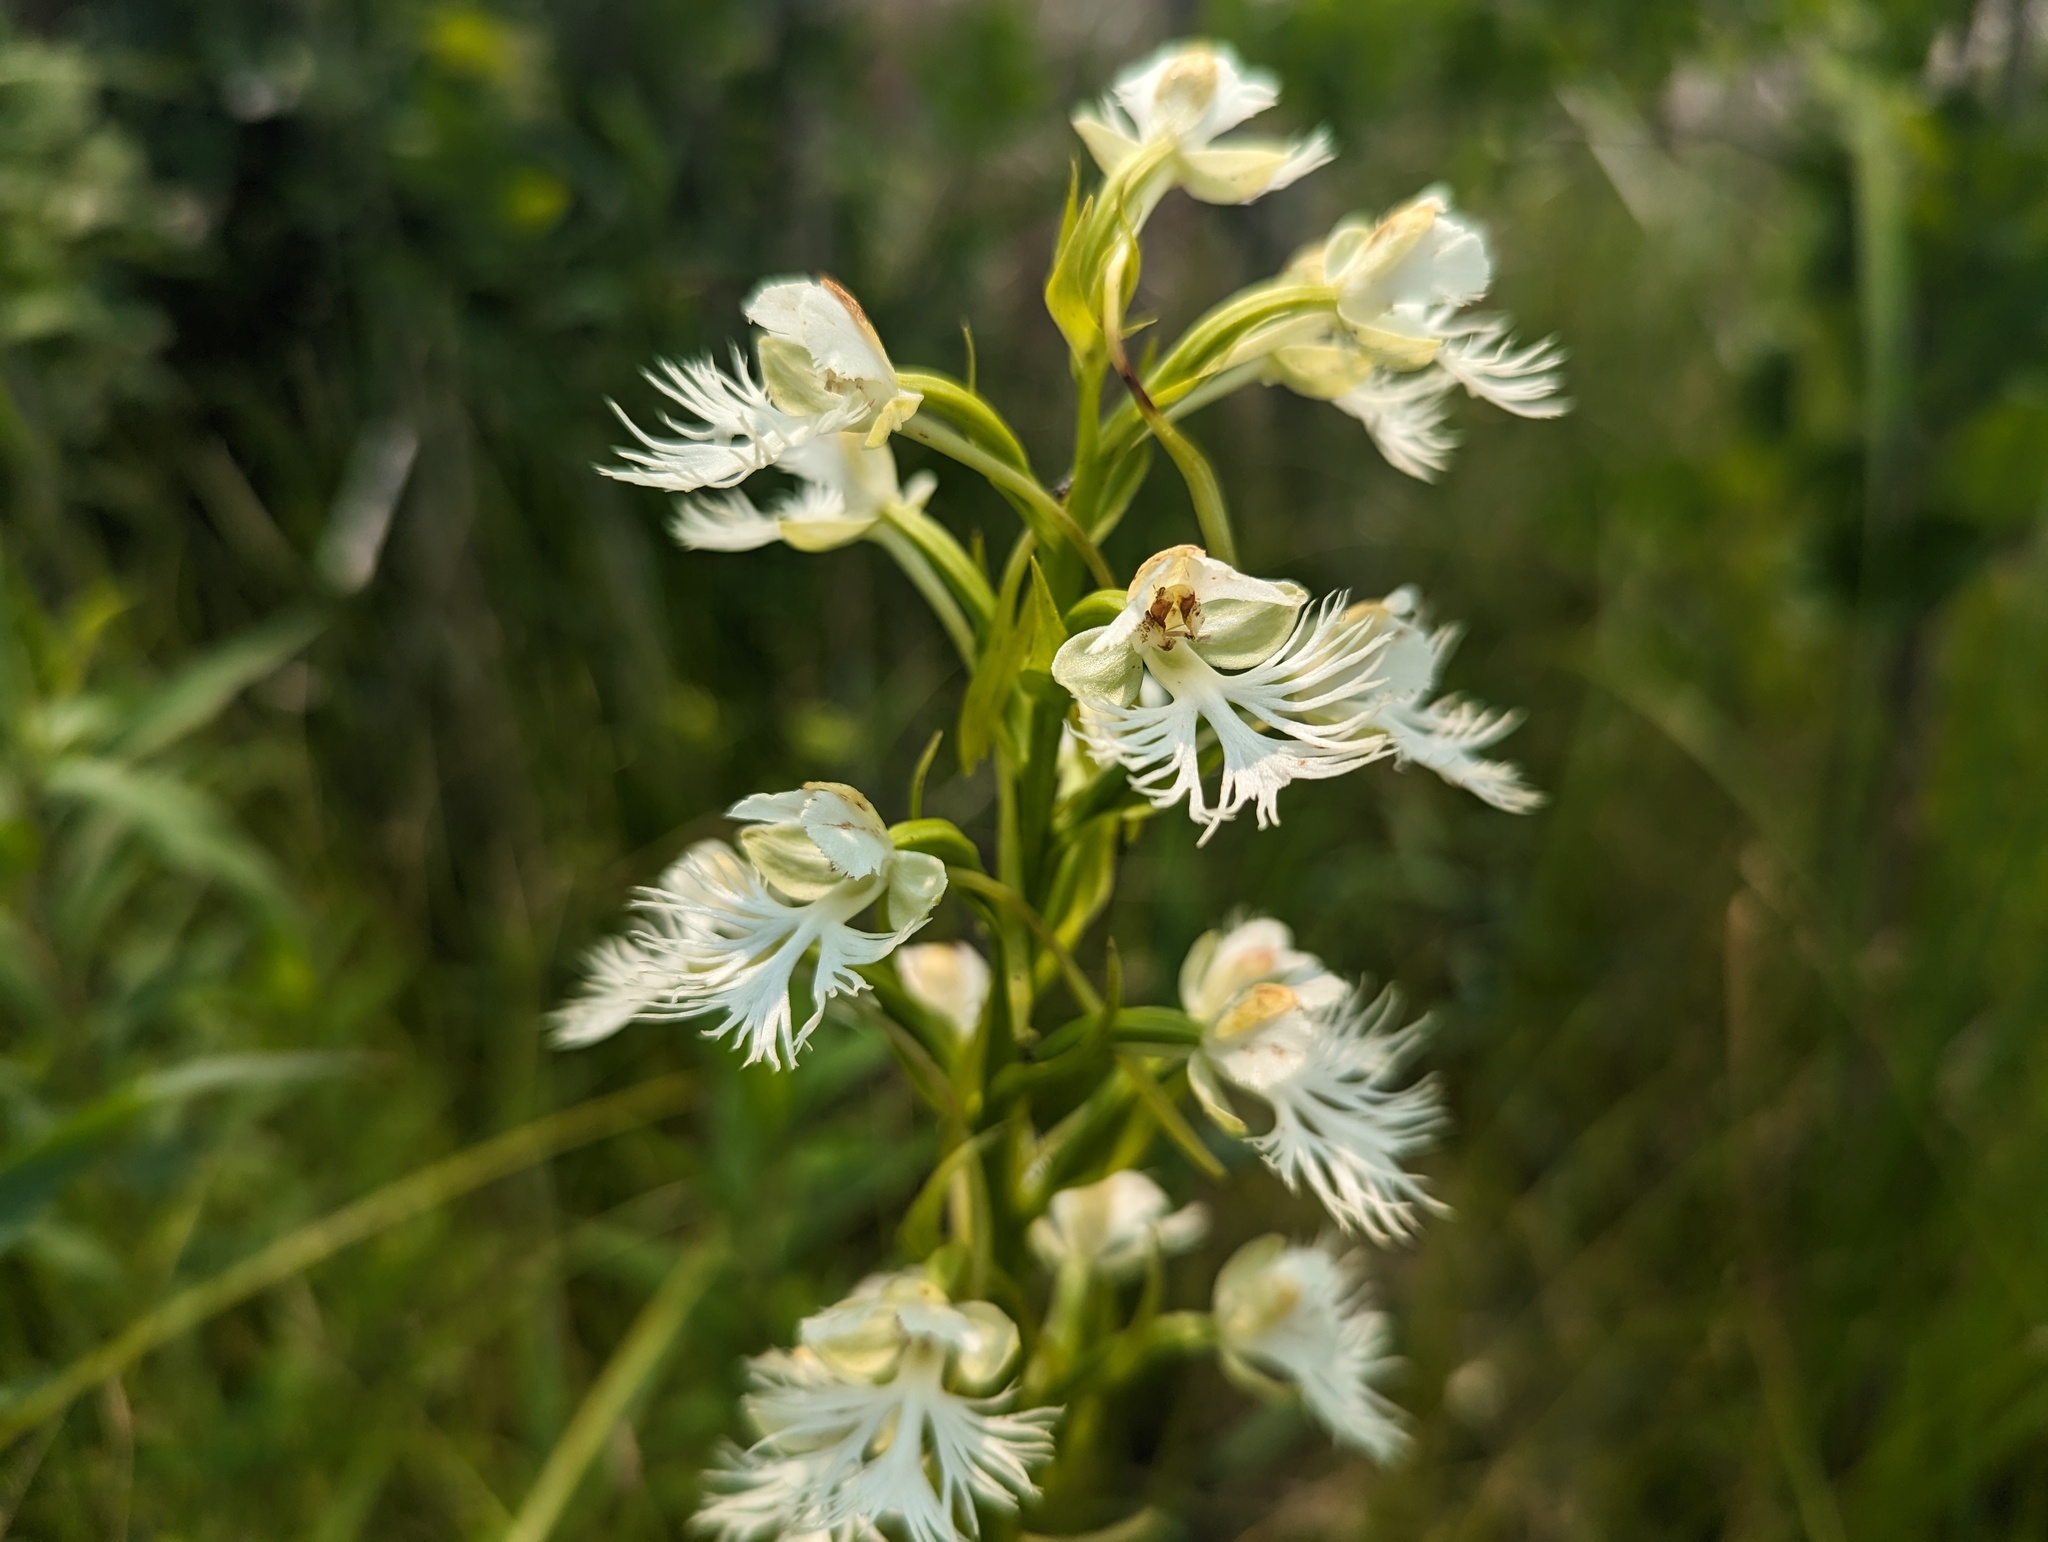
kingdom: Plantae
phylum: Tracheophyta
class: Liliopsida
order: Asparagales
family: Orchidaceae
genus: Platanthera
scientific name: Platanthera leucophaea
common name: Eastern prairie white-fringed orchid
